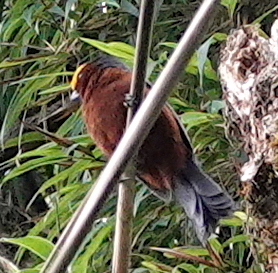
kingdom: Animalia
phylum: Chordata
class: Aves
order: Passeriformes
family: Thraupidae
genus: Catamblyrhynchus
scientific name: Catamblyrhynchus diadema
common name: Plushcap
